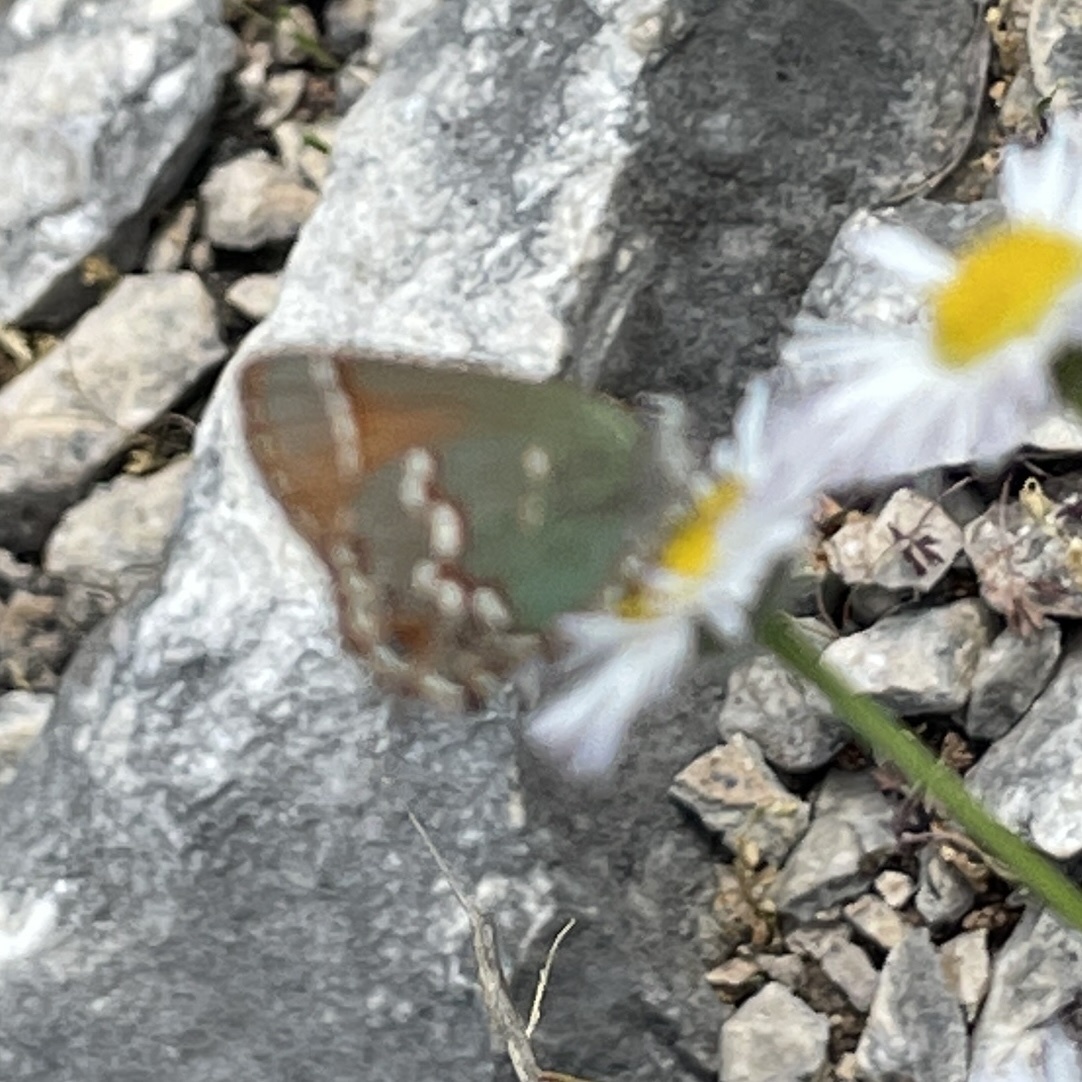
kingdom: Animalia
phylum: Arthropoda
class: Insecta
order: Lepidoptera
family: Lycaenidae
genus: Mitoura
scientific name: Mitoura gryneus
